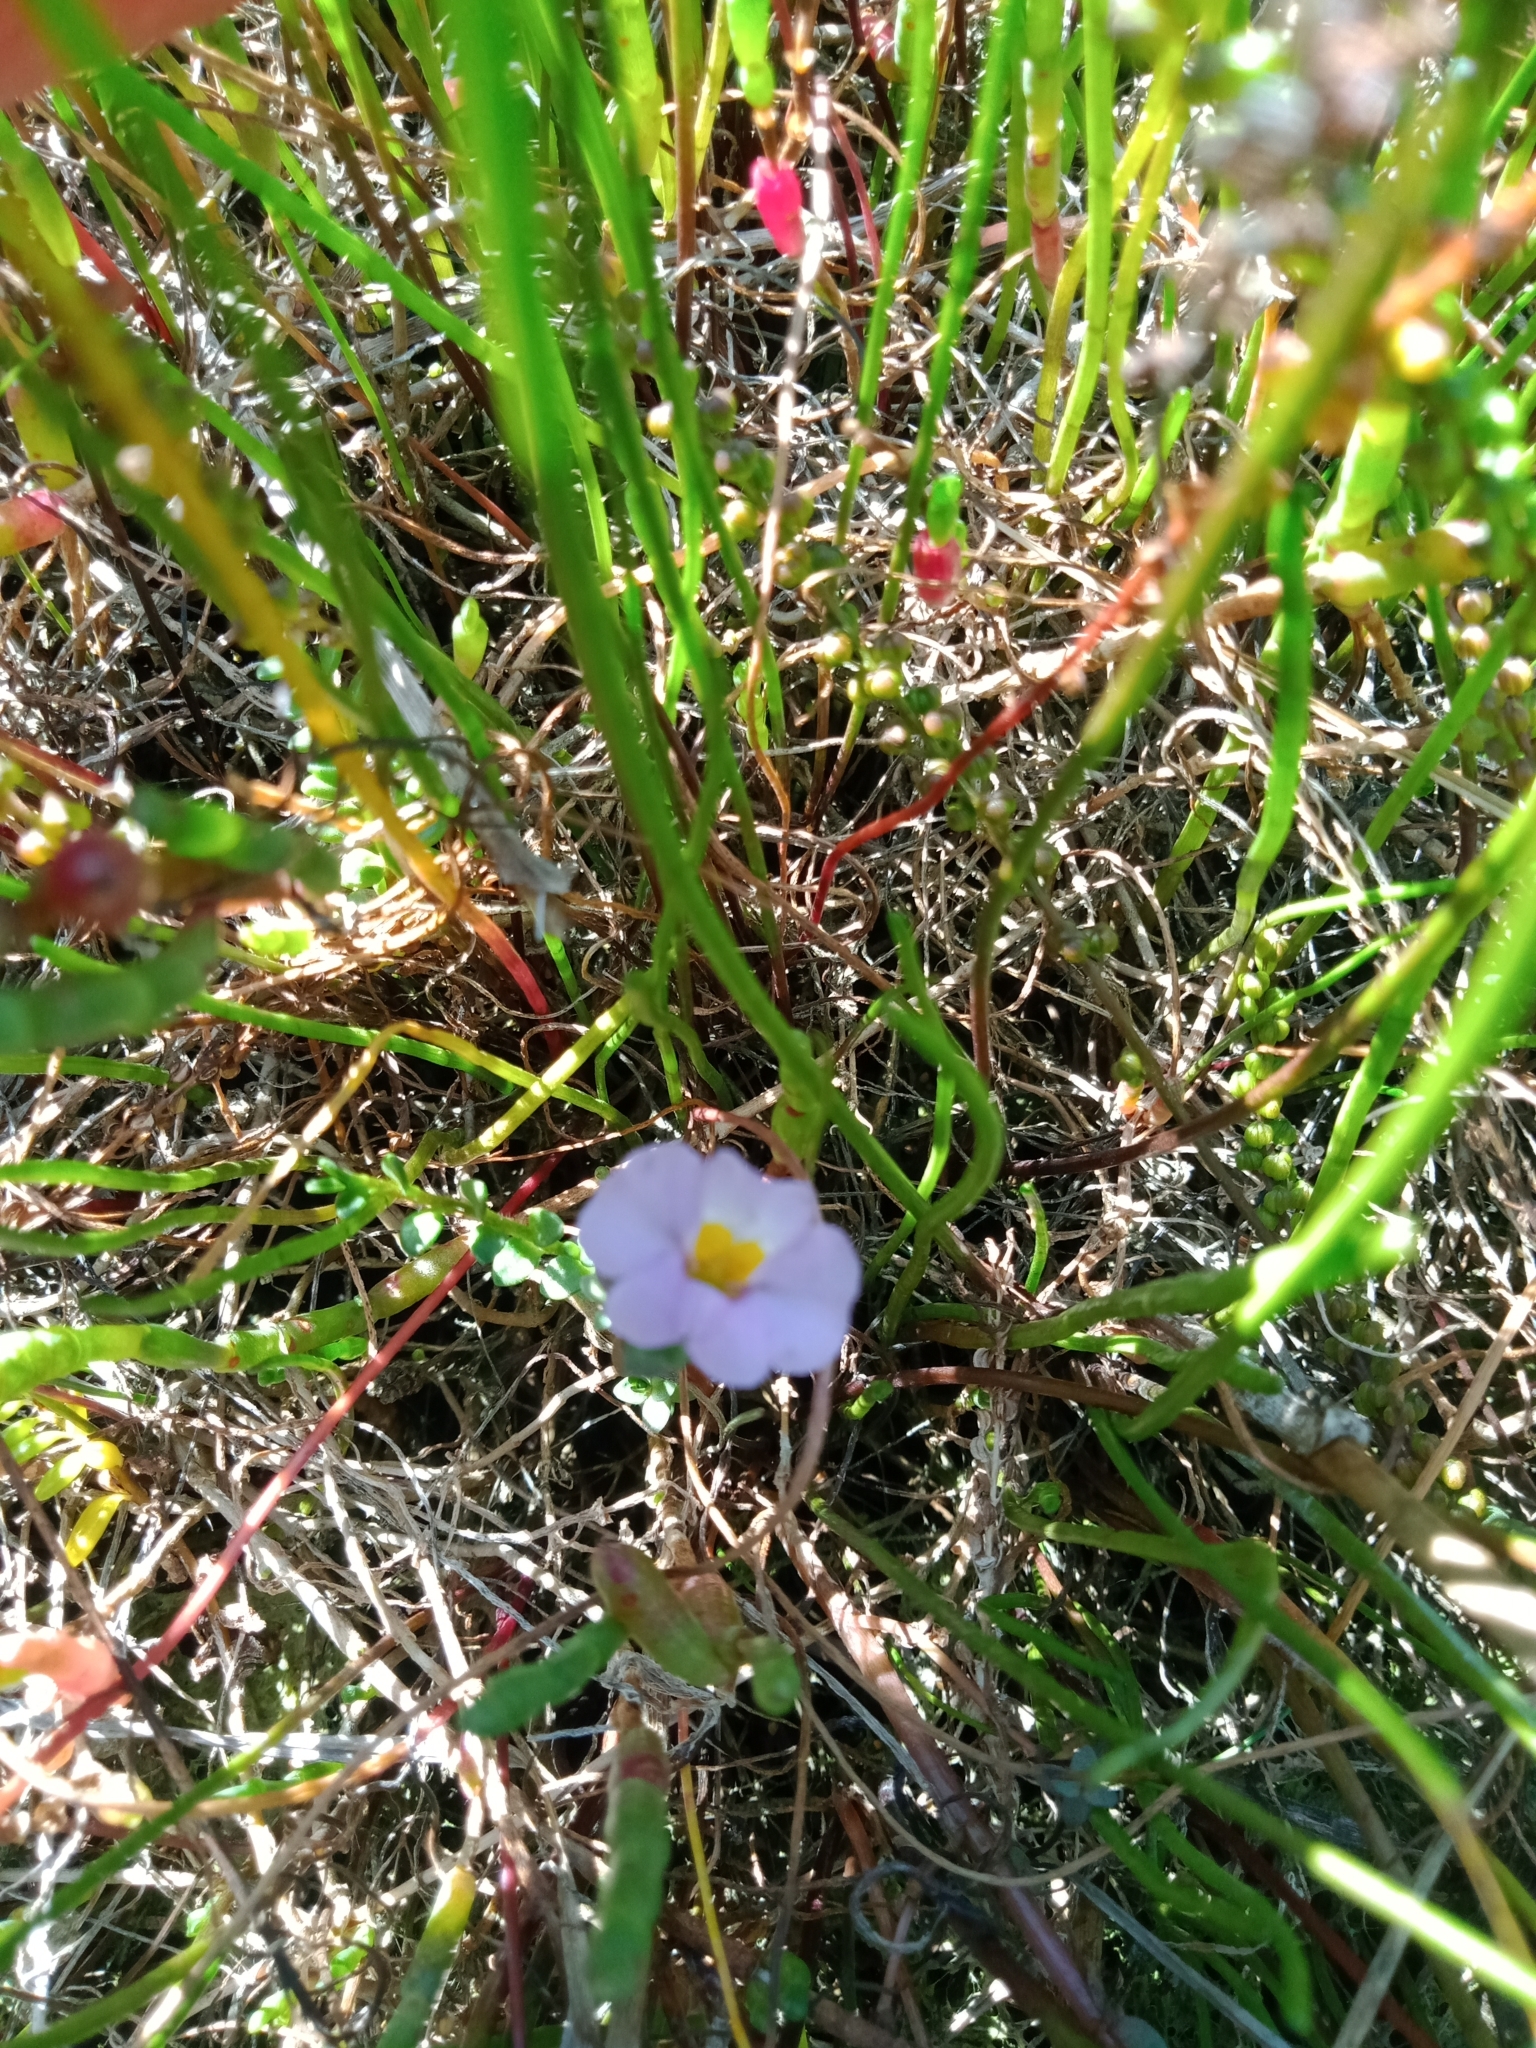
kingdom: Plantae
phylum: Tracheophyta
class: Magnoliopsida
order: Lamiales
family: Phrymaceae
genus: Thyridia
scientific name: Thyridia repens
